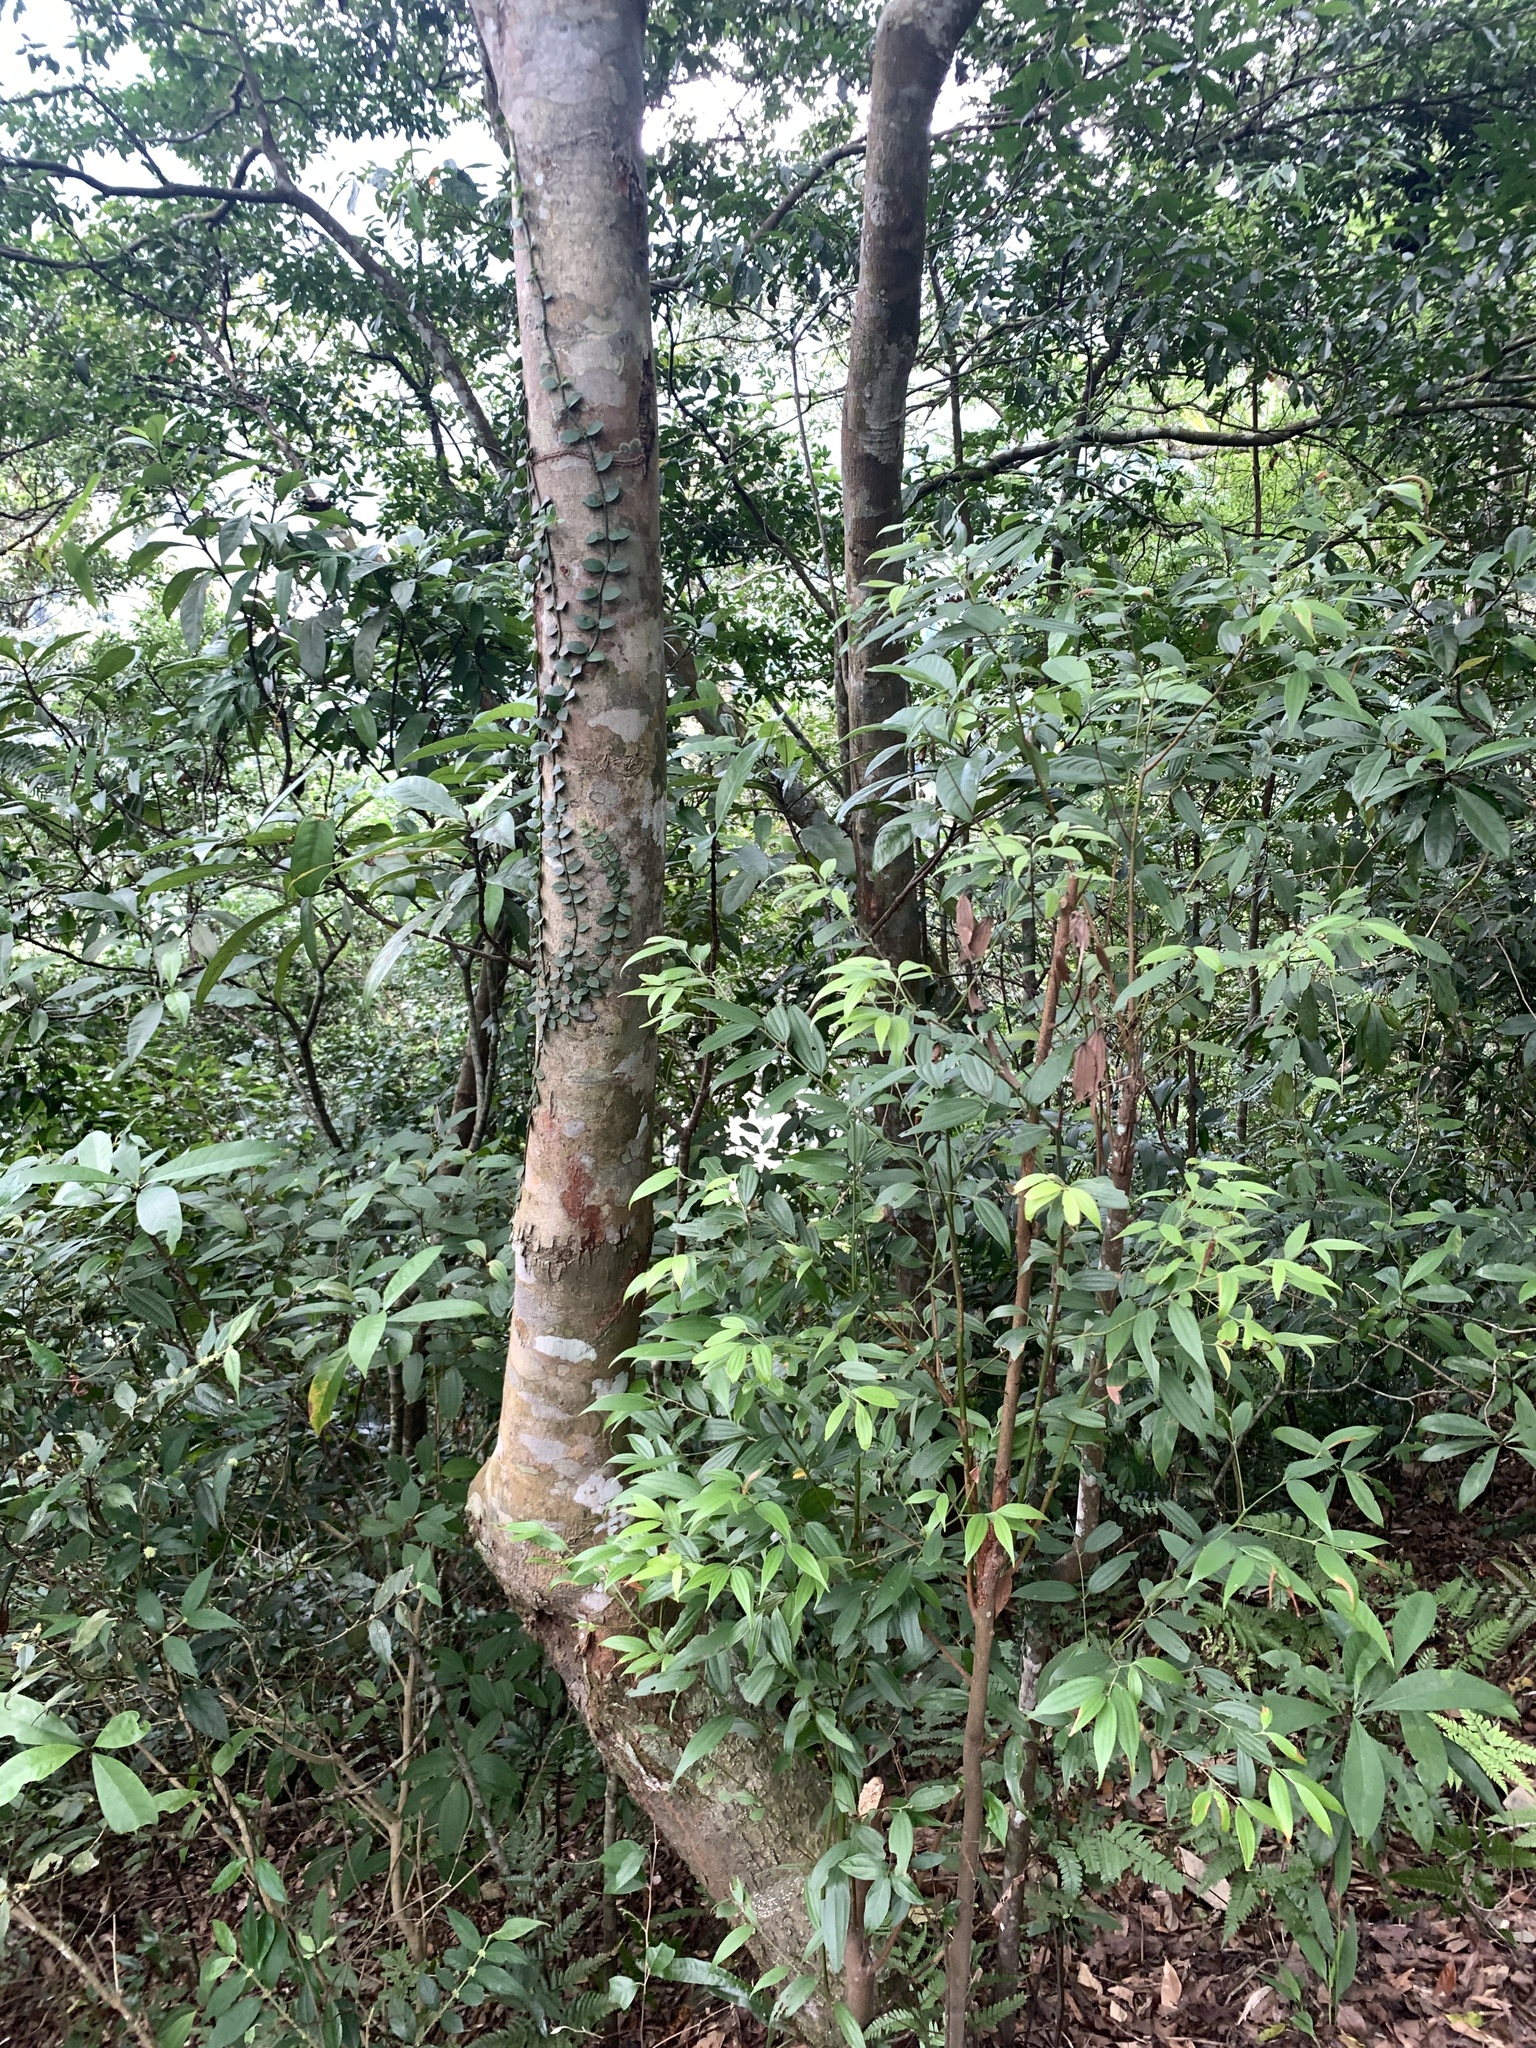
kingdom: Plantae
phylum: Tracheophyta
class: Magnoliopsida
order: Laurales
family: Lauraceae
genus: Cinnamomum
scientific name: Cinnamomum subavenium
